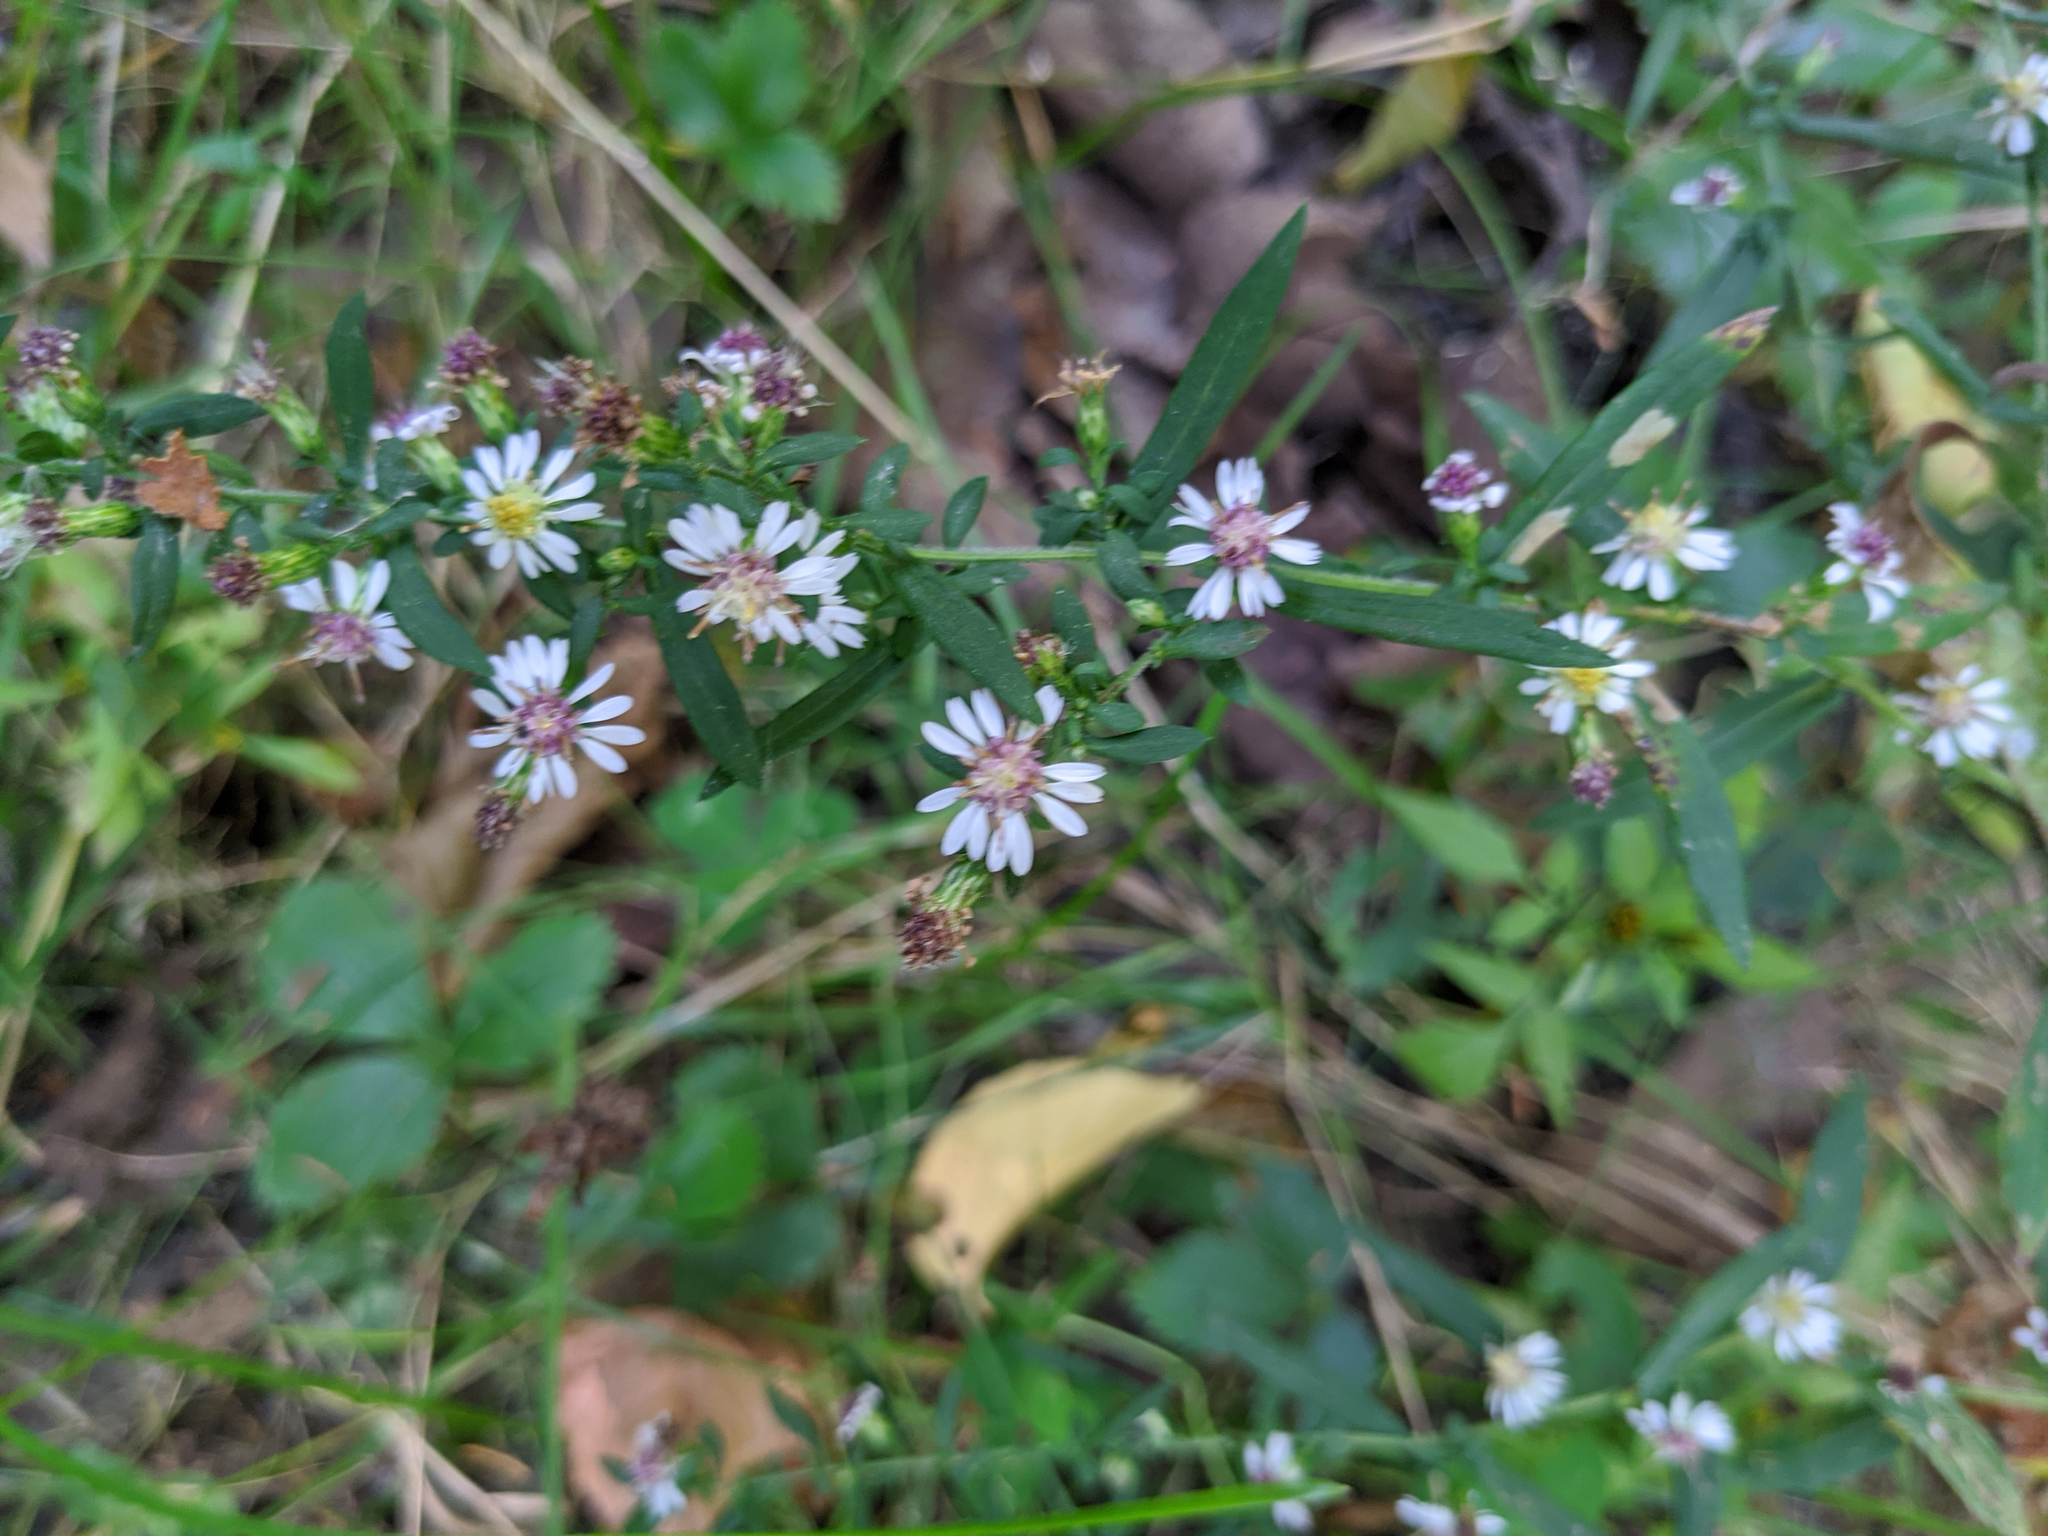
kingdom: Plantae
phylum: Tracheophyta
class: Magnoliopsida
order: Asterales
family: Asteraceae
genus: Symphyotrichum
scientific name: Symphyotrichum lateriflorum
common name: Calico aster
